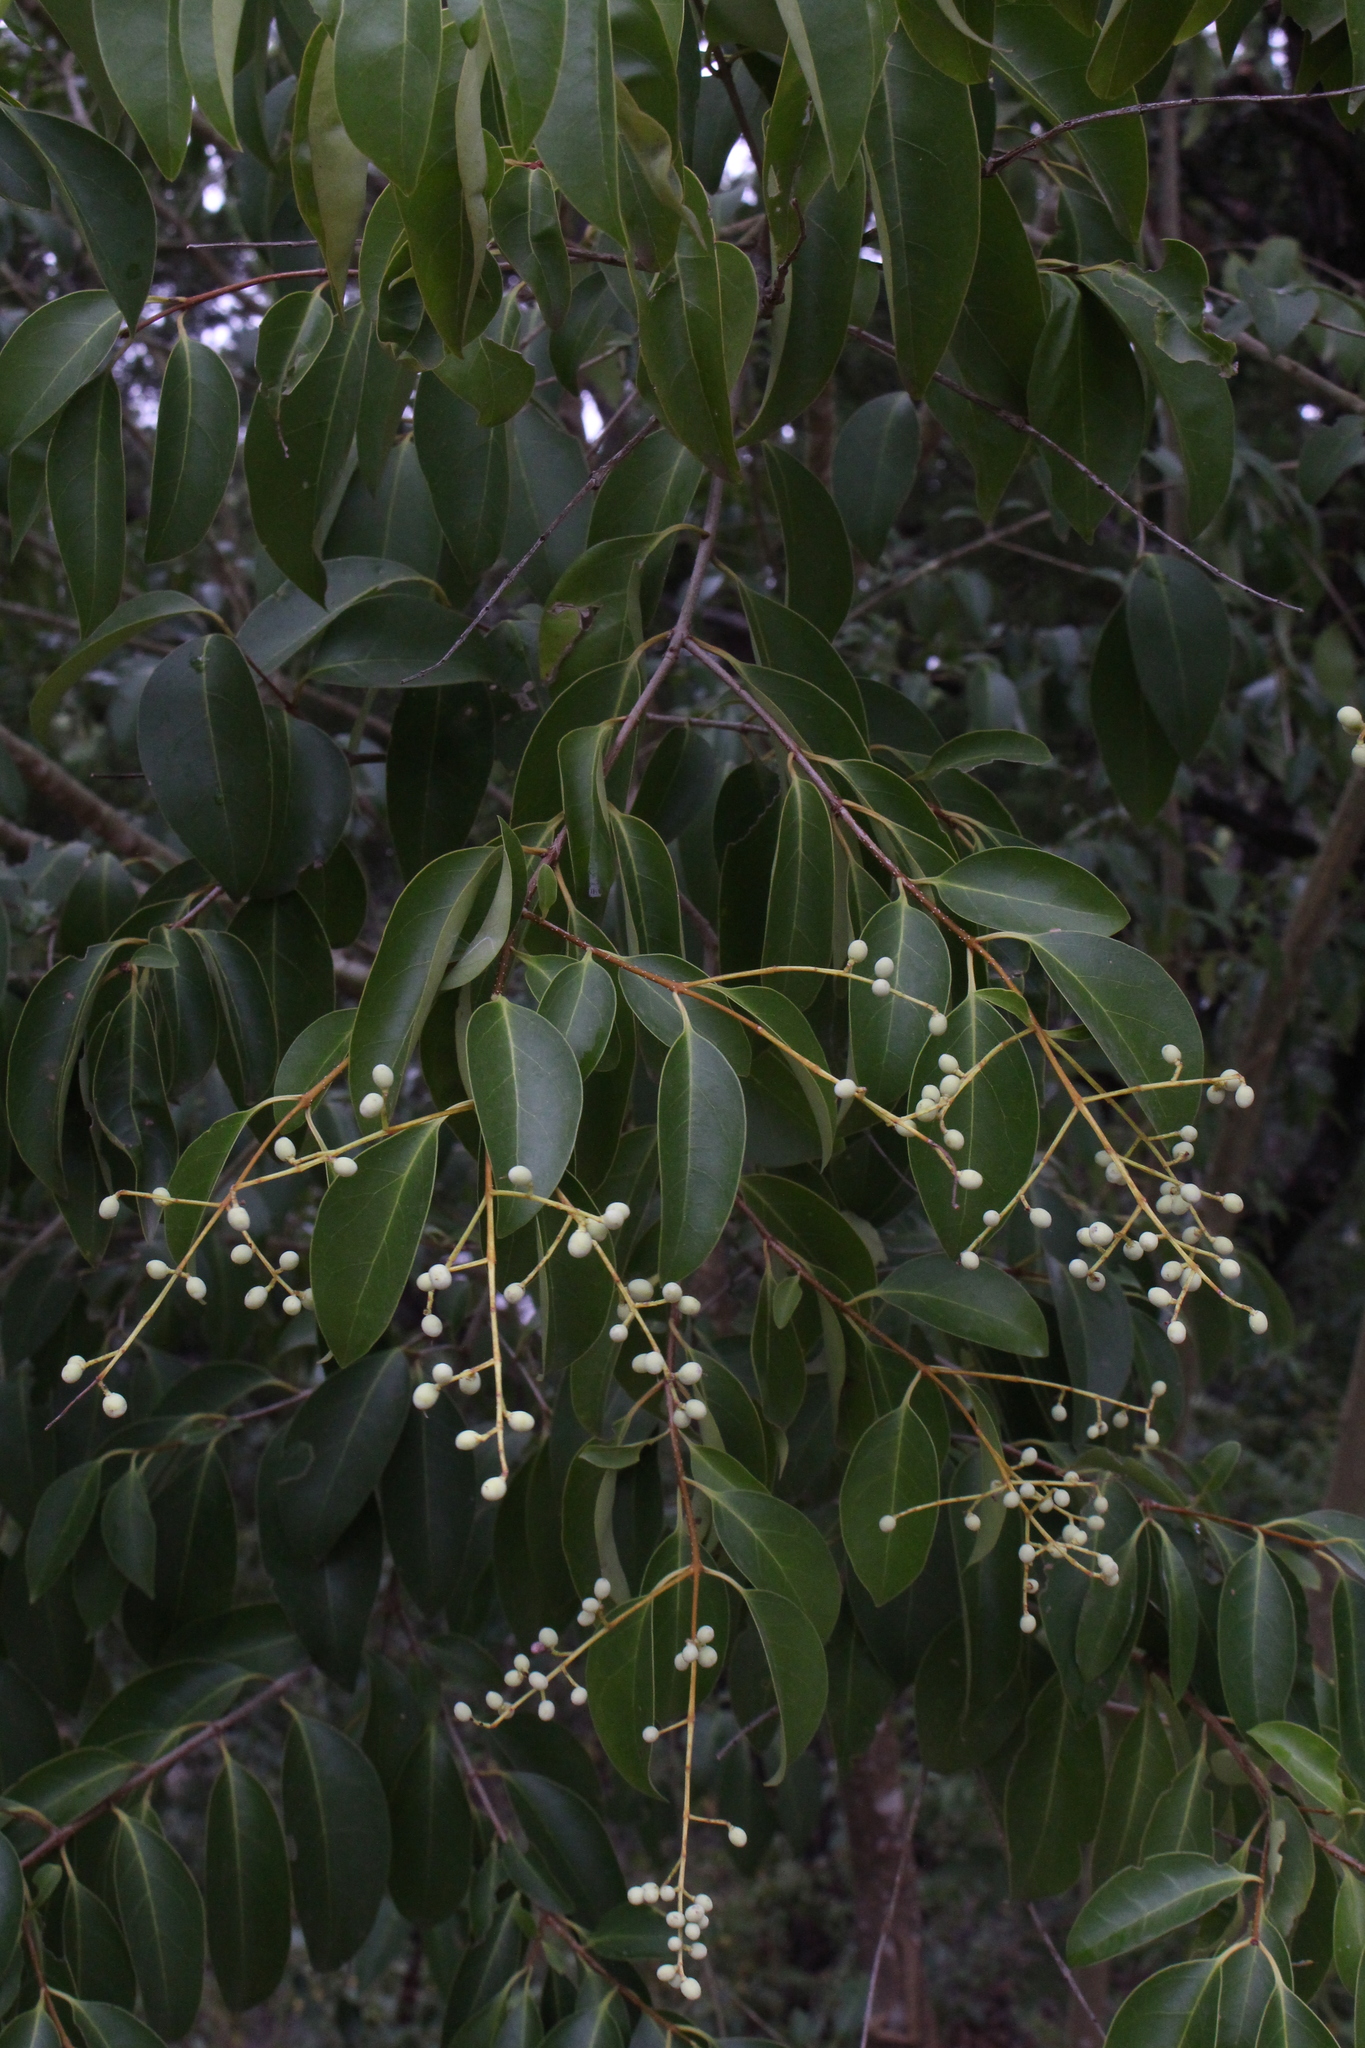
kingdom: Plantae
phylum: Tracheophyta
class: Magnoliopsida
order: Lamiales
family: Oleaceae
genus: Ligustrum
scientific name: Ligustrum lucidum
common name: Glossy privet
